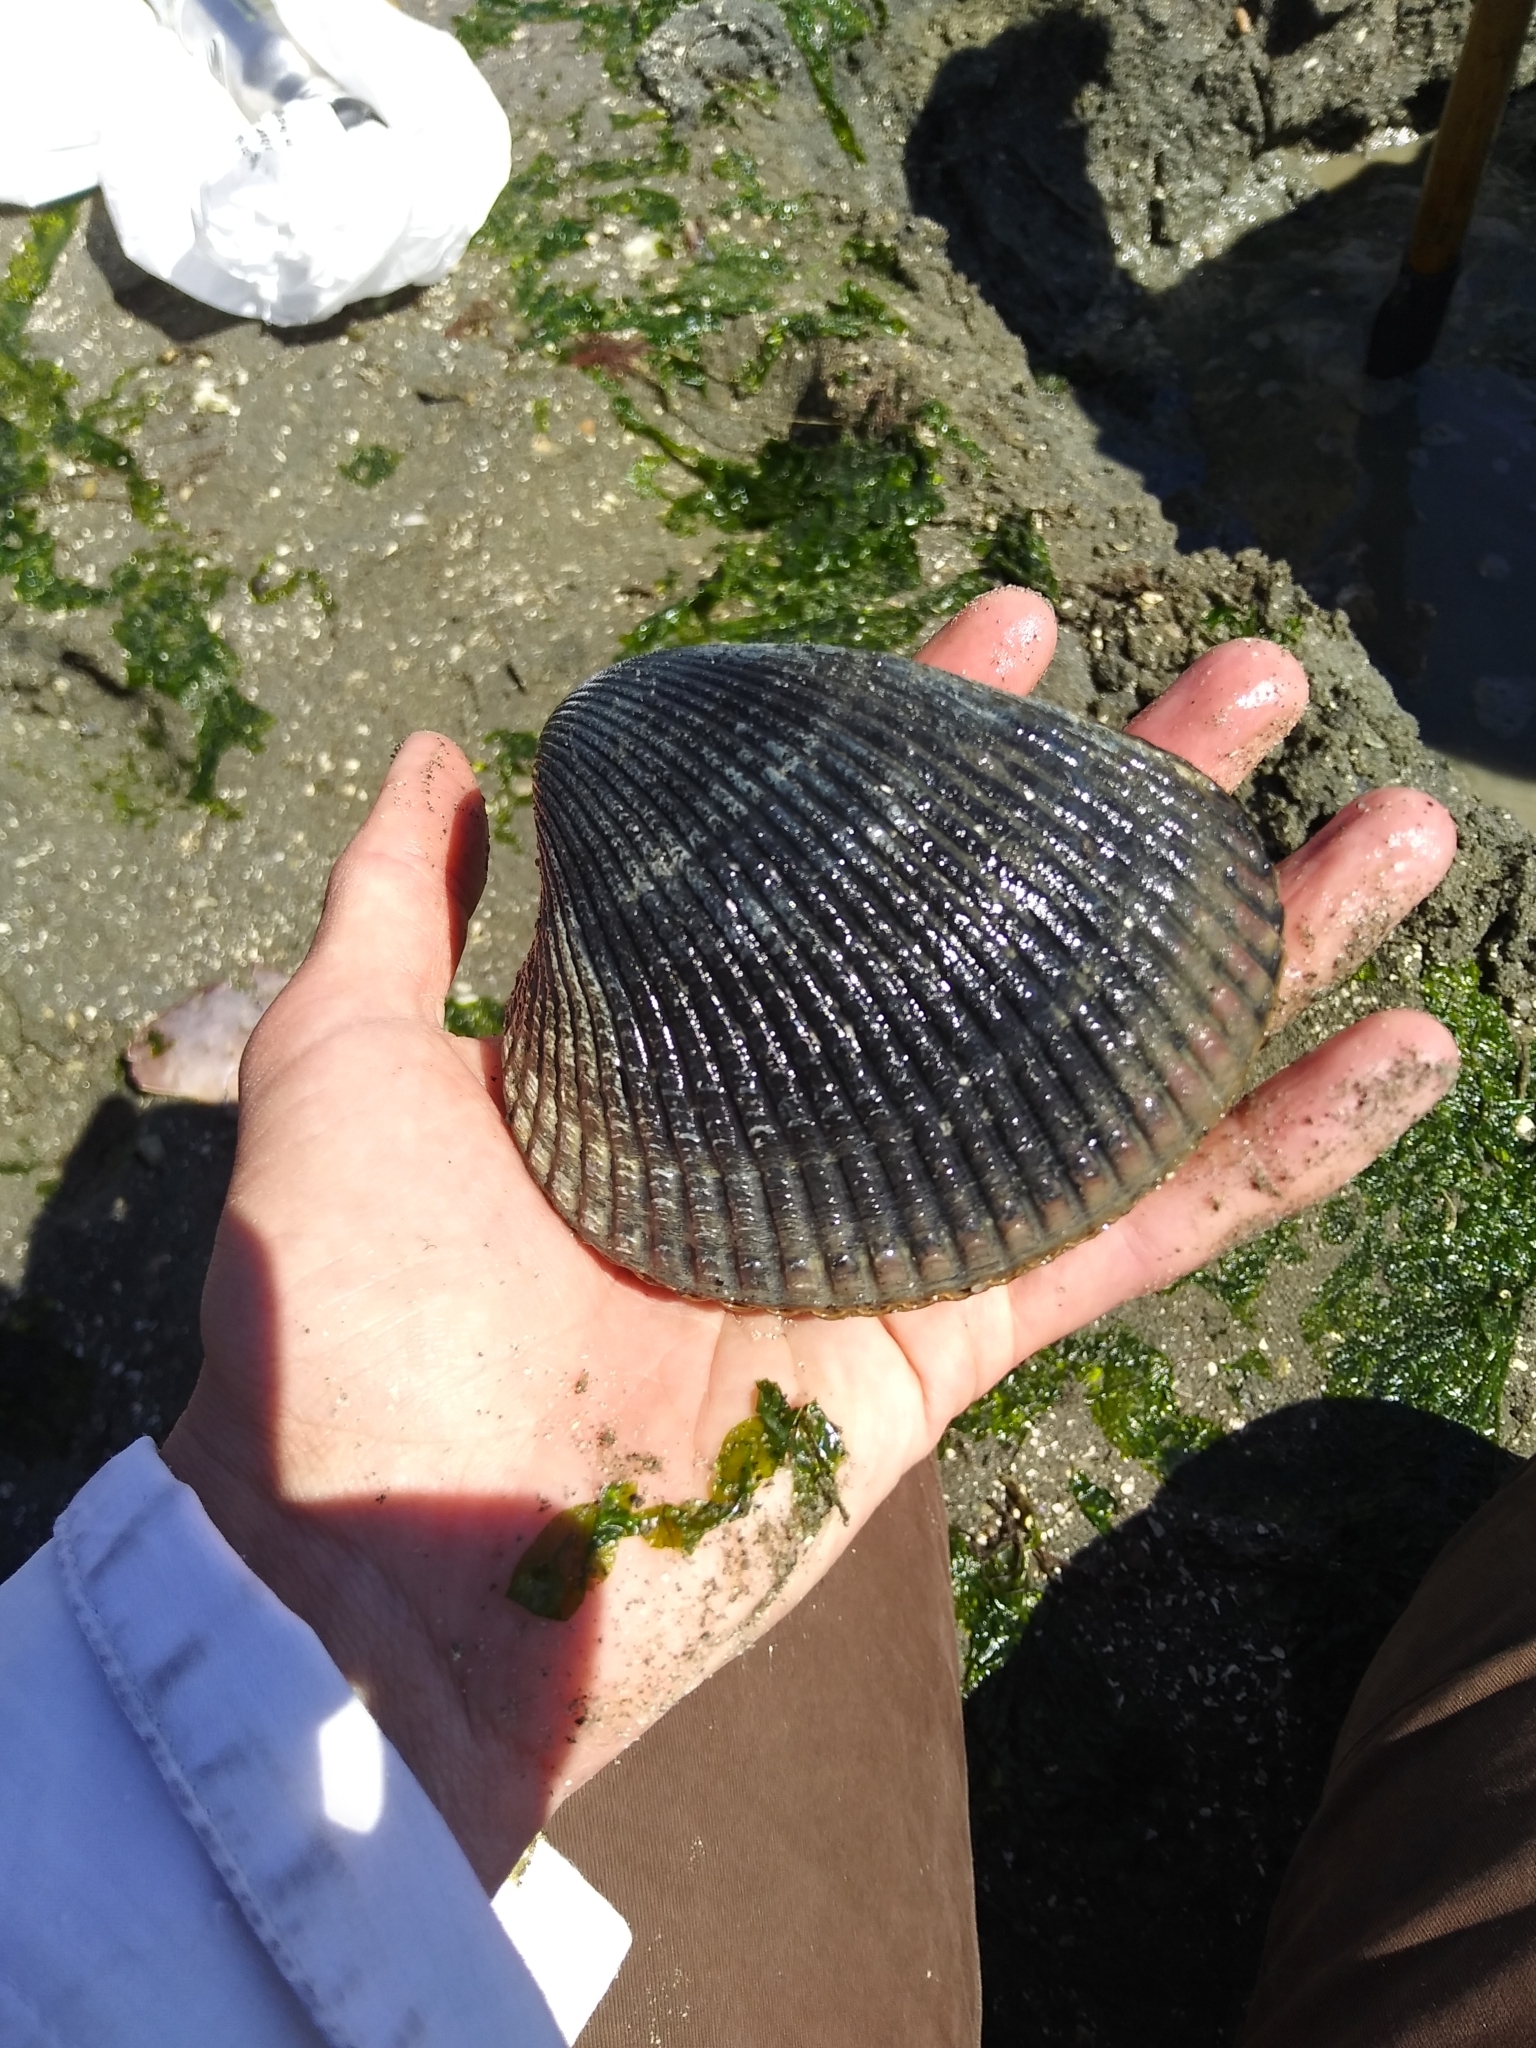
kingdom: Animalia
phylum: Mollusca
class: Bivalvia
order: Cardiida
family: Cardiidae
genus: Clinocardium
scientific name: Clinocardium nuttallii
